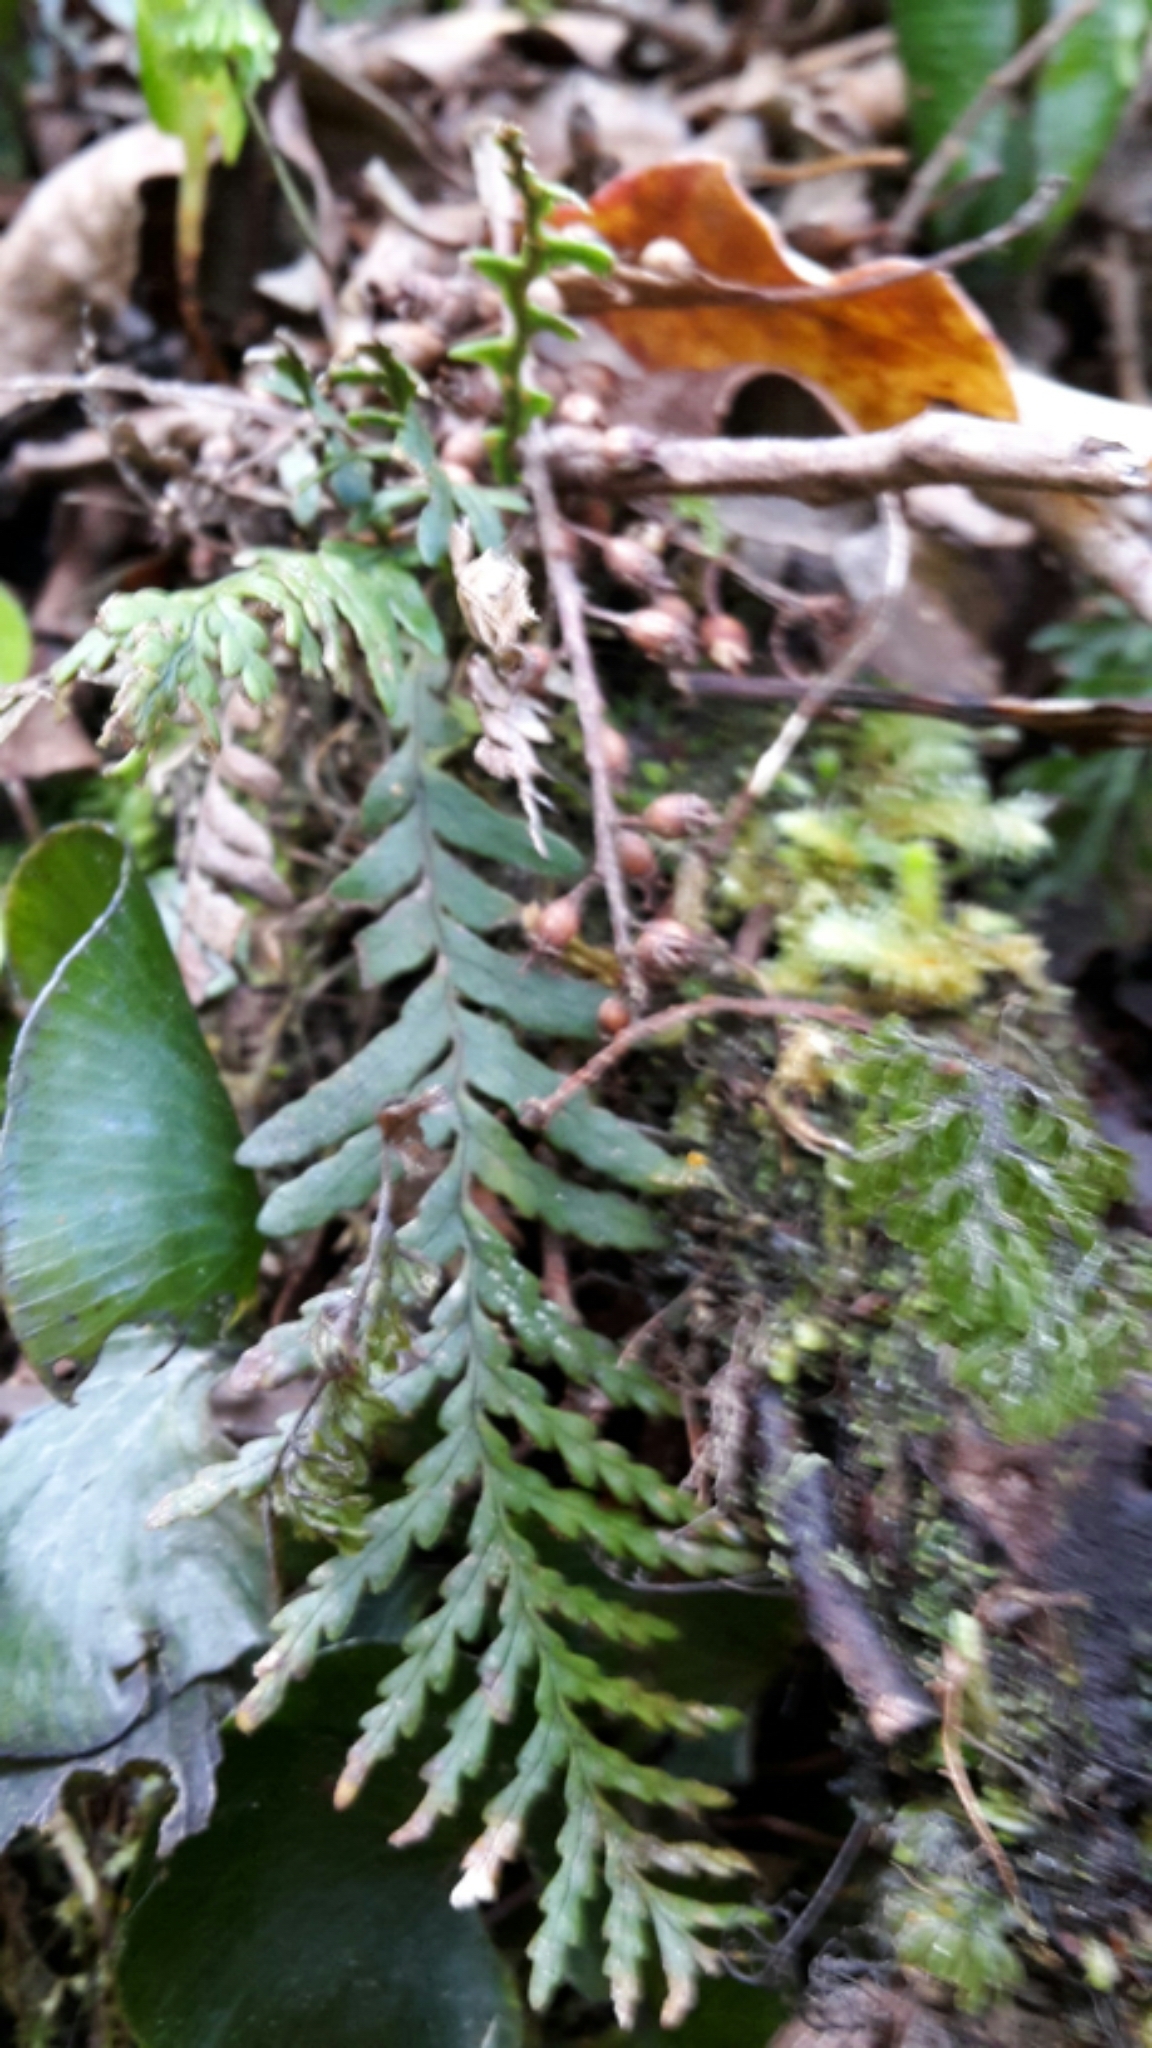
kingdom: Plantae
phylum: Tracheophyta
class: Polypodiopsida
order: Polypodiales
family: Polypodiaceae
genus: Notogrammitis
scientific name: Notogrammitis heterophylla
